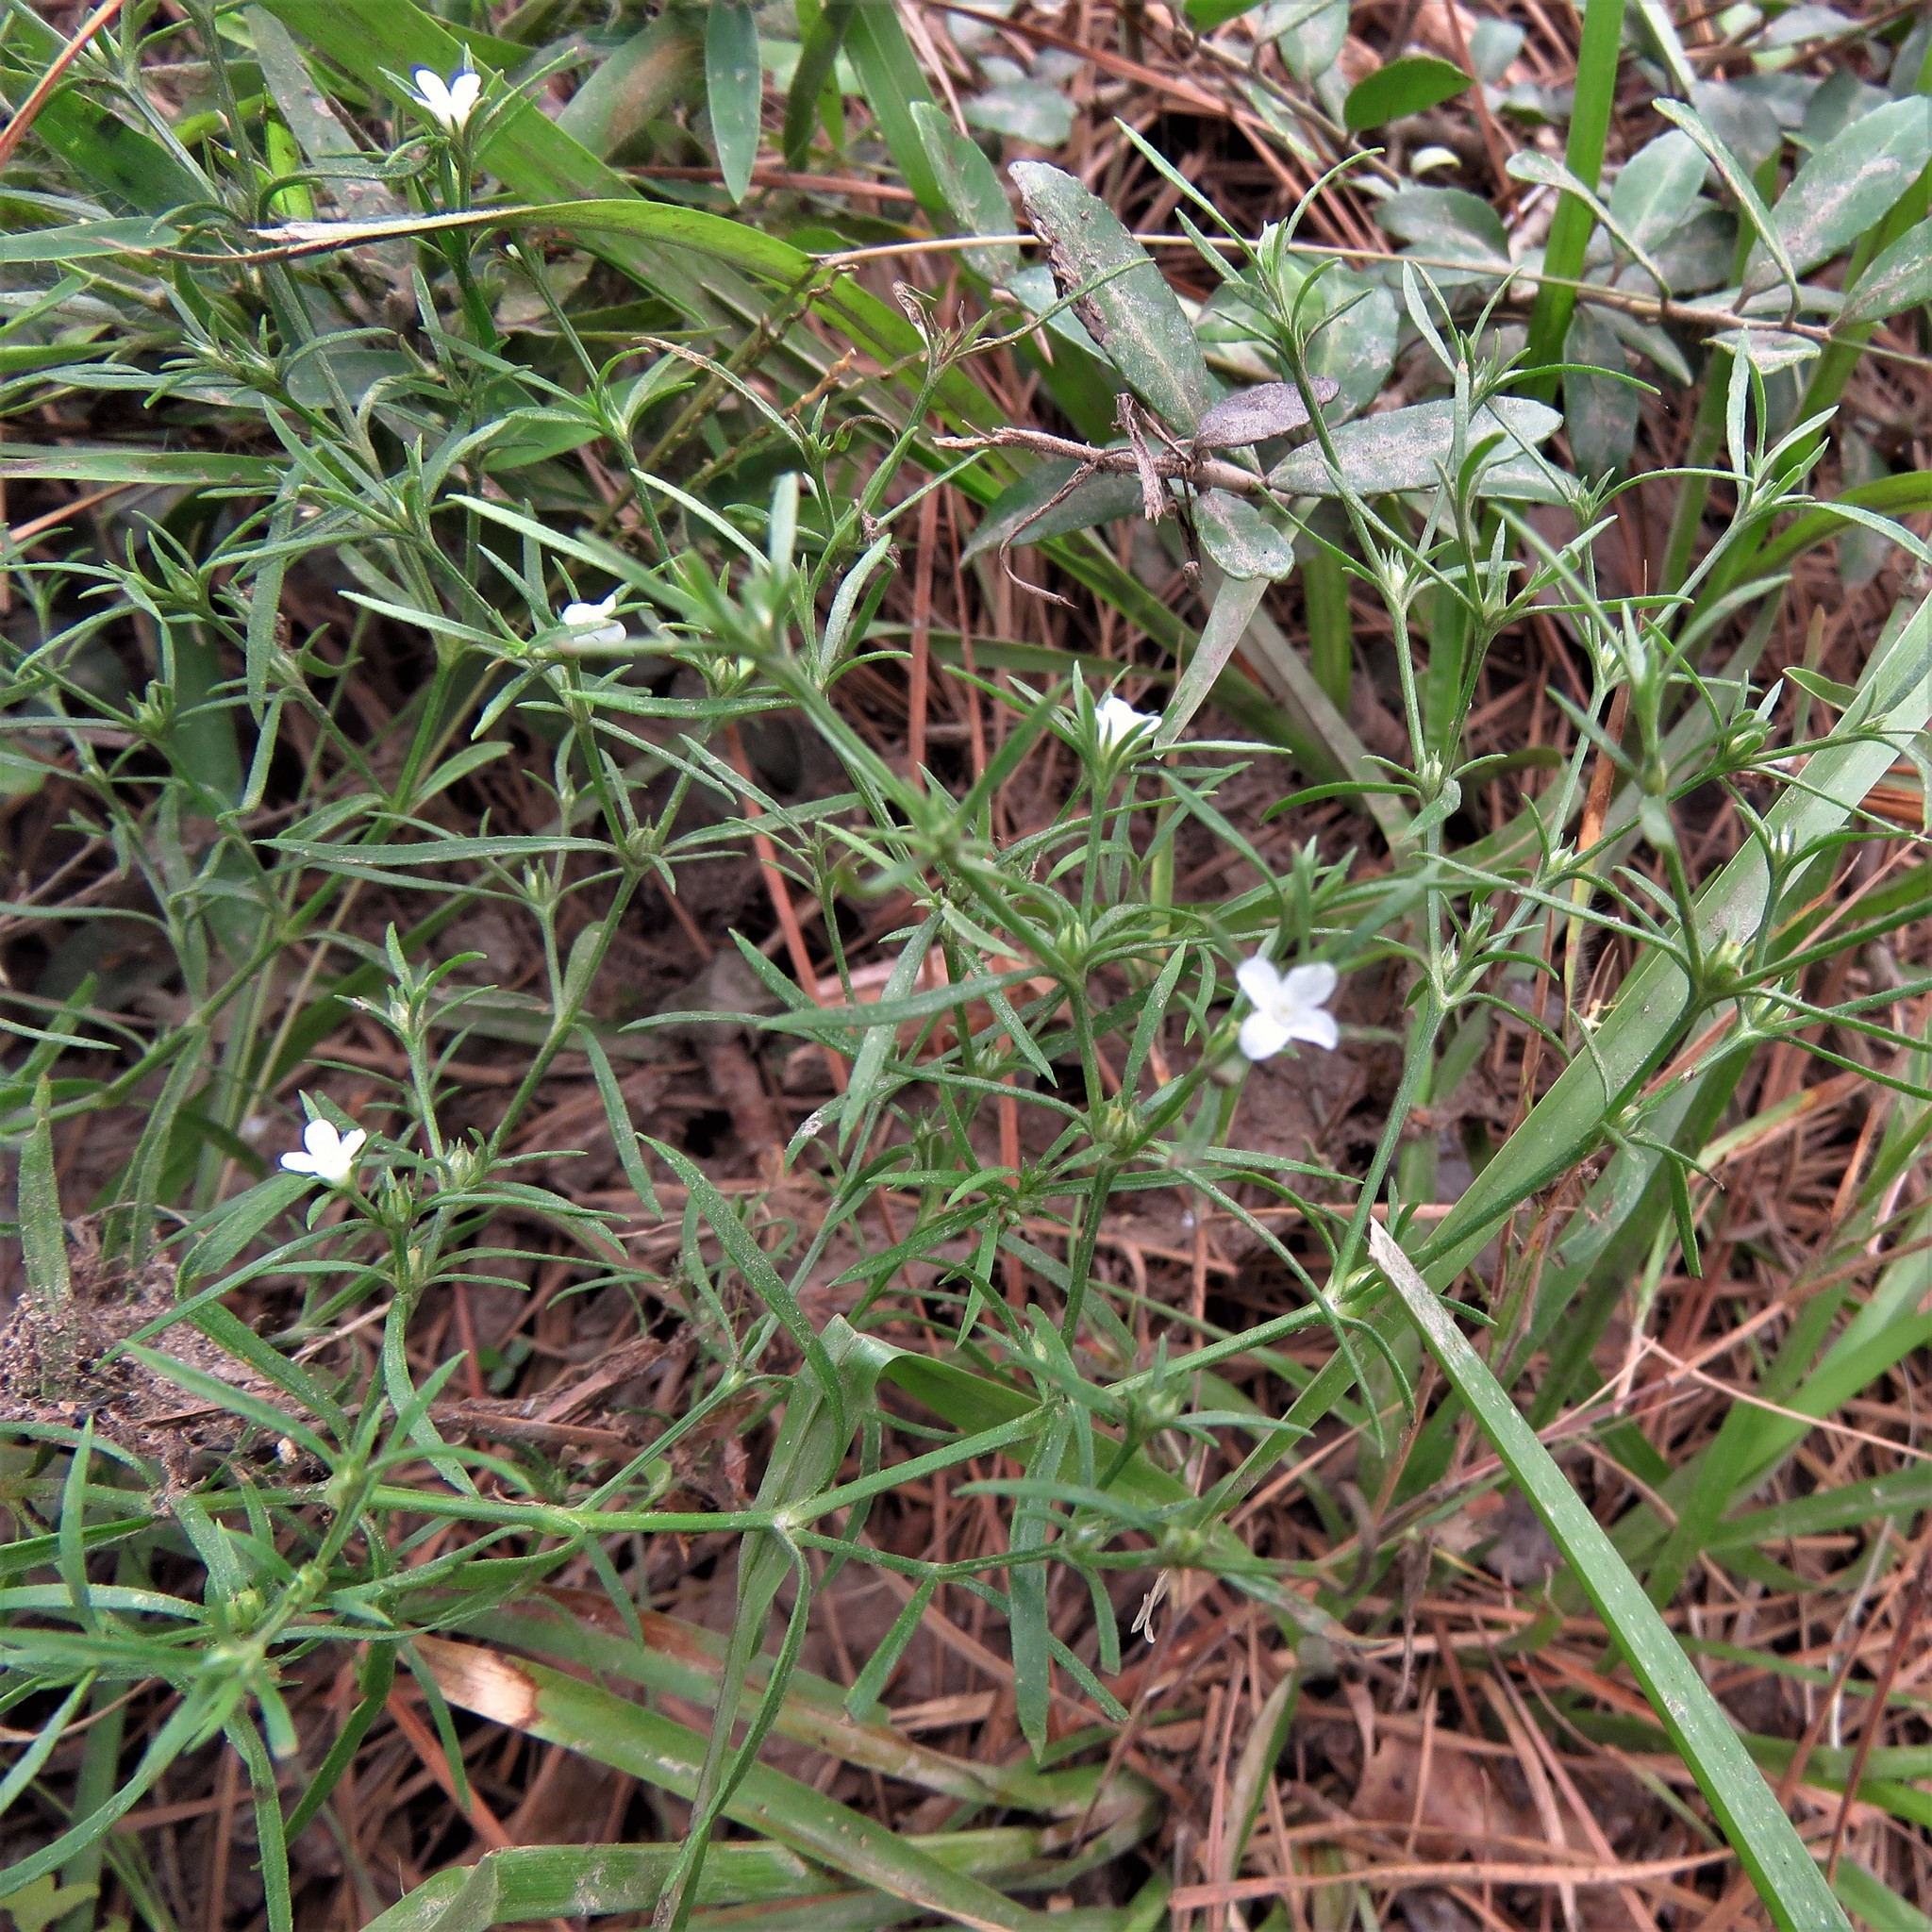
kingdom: Plantae
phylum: Tracheophyta
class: Magnoliopsida
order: Lamiales
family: Tetrachondraceae
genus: Polypremum
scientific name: Polypremum procumbens
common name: Juniper-leaf
